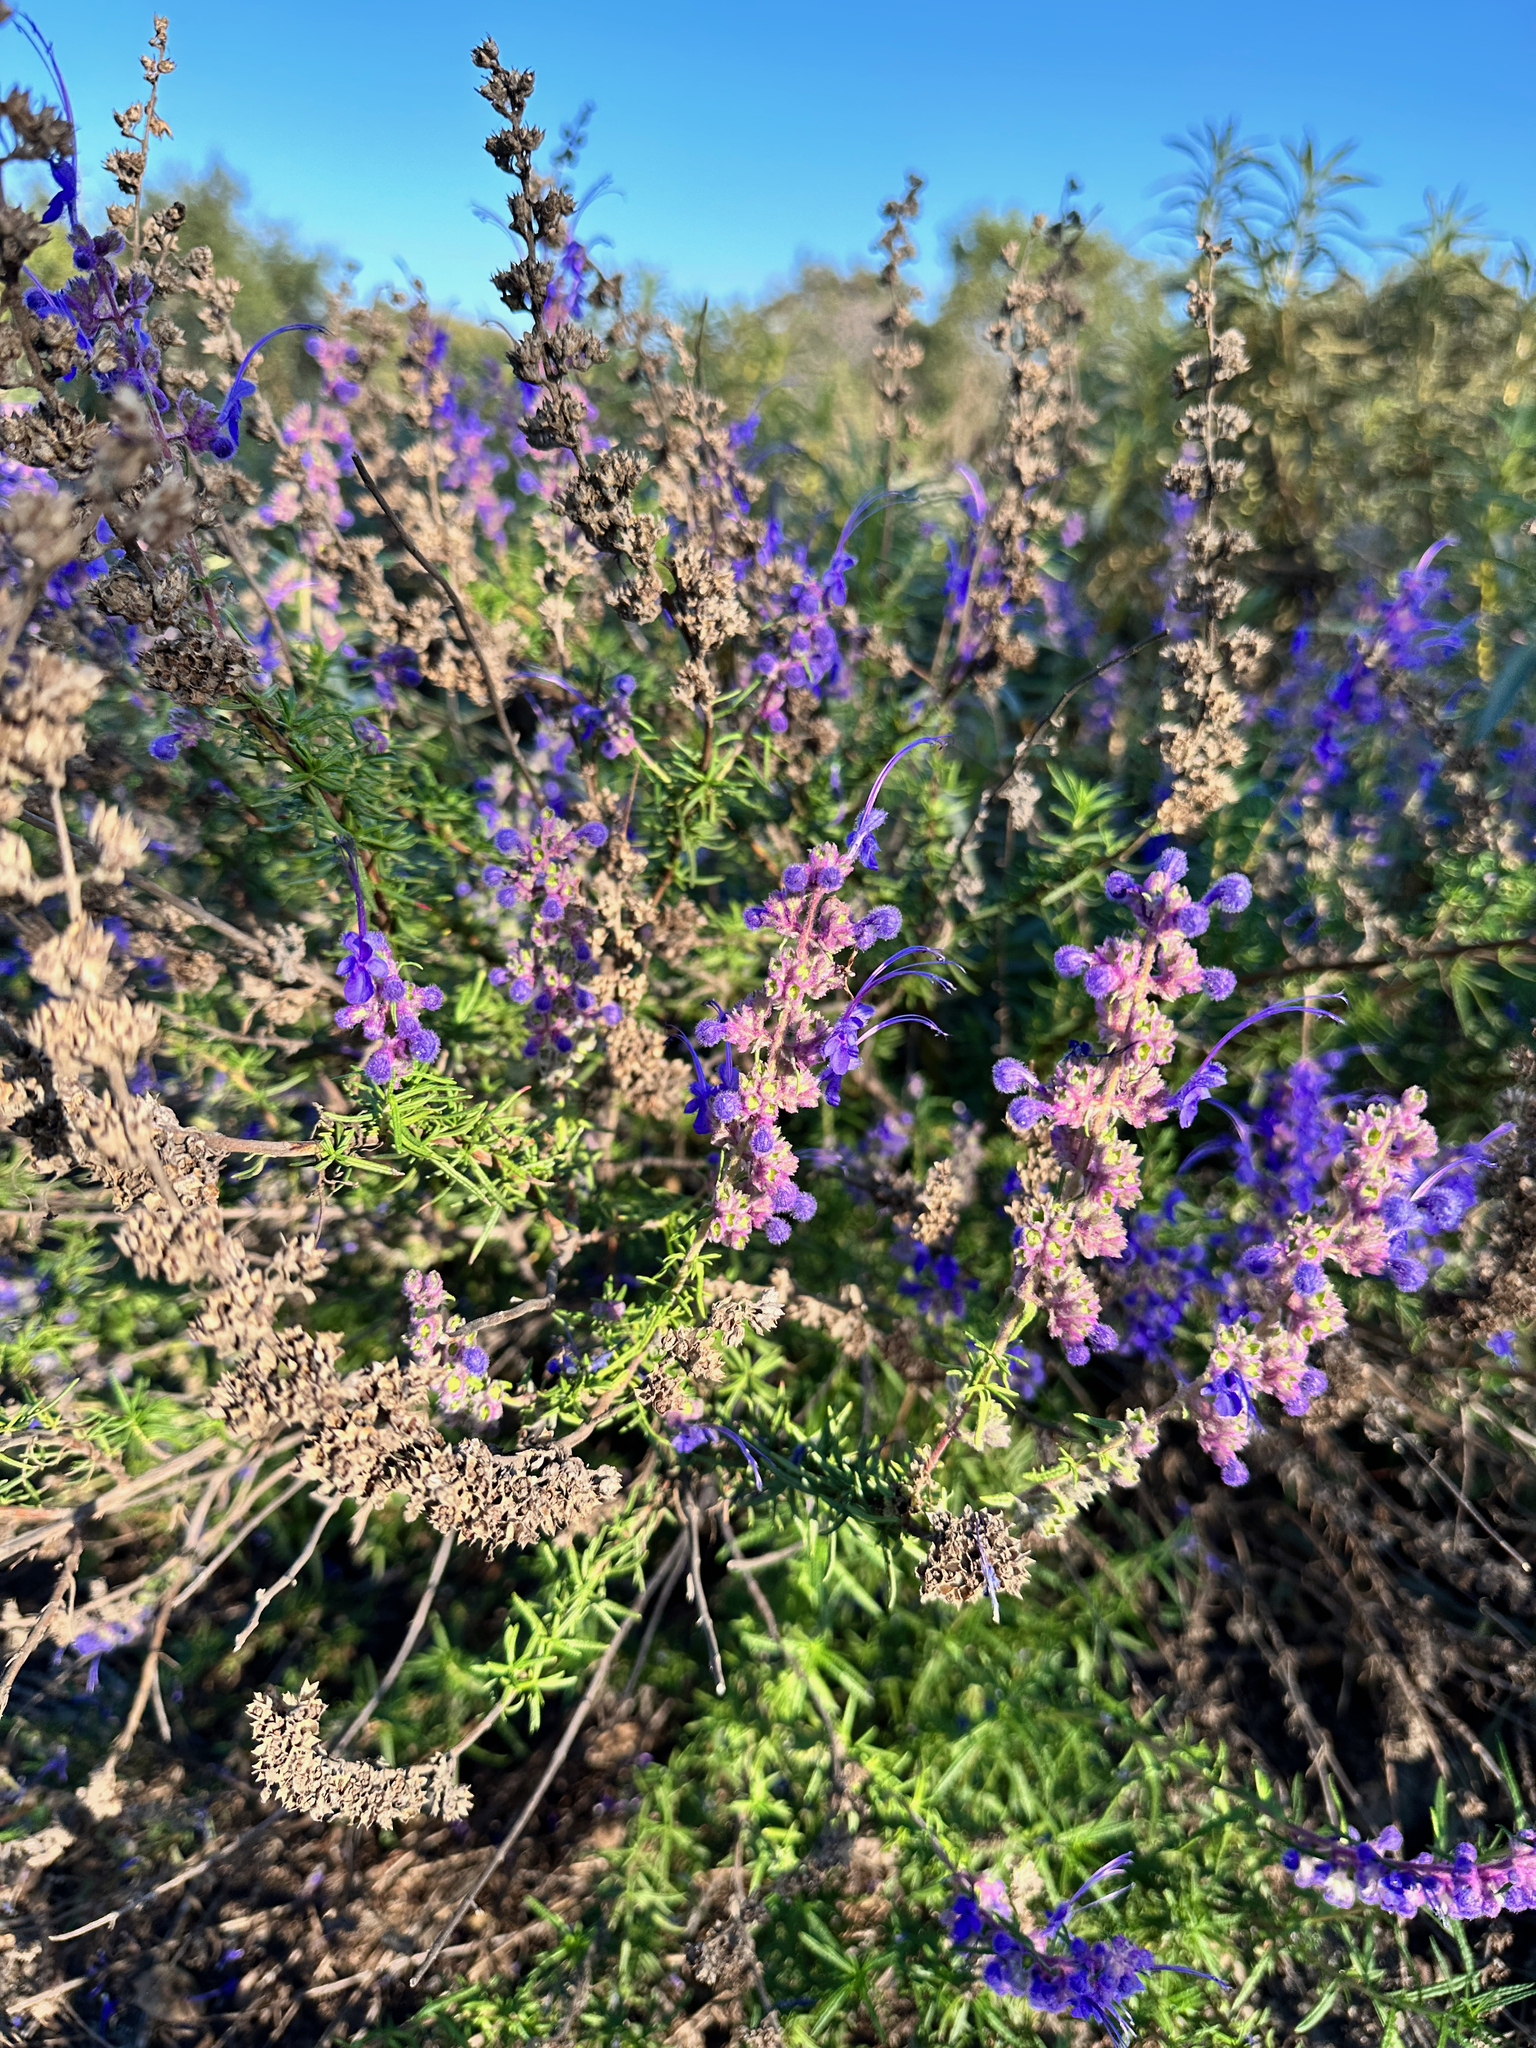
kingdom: Plantae
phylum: Tracheophyta
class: Magnoliopsida
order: Lamiales
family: Lamiaceae
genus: Trichostema
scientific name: Trichostema lanatum
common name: Woolly bluecurls
